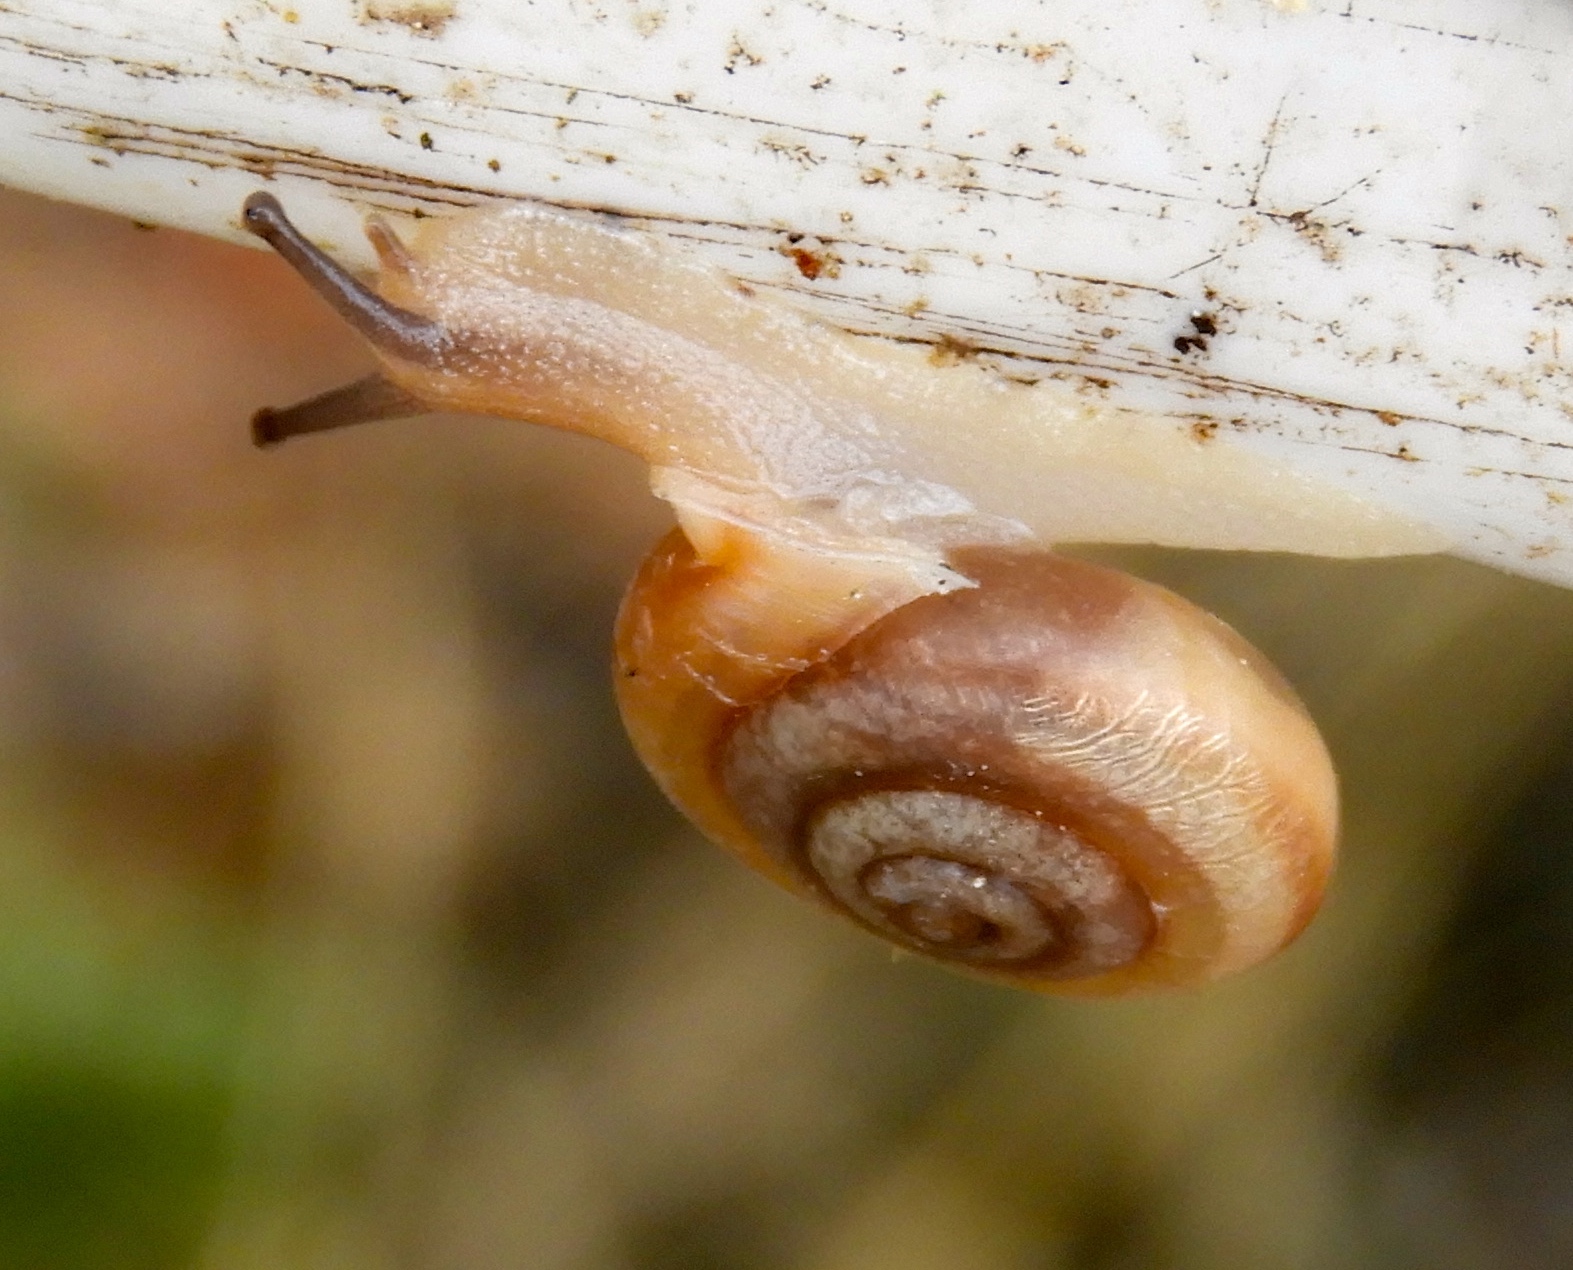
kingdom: Animalia
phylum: Mollusca
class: Gastropoda
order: Stylommatophora
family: Polygyridae
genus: Linisa
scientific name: Linisa
